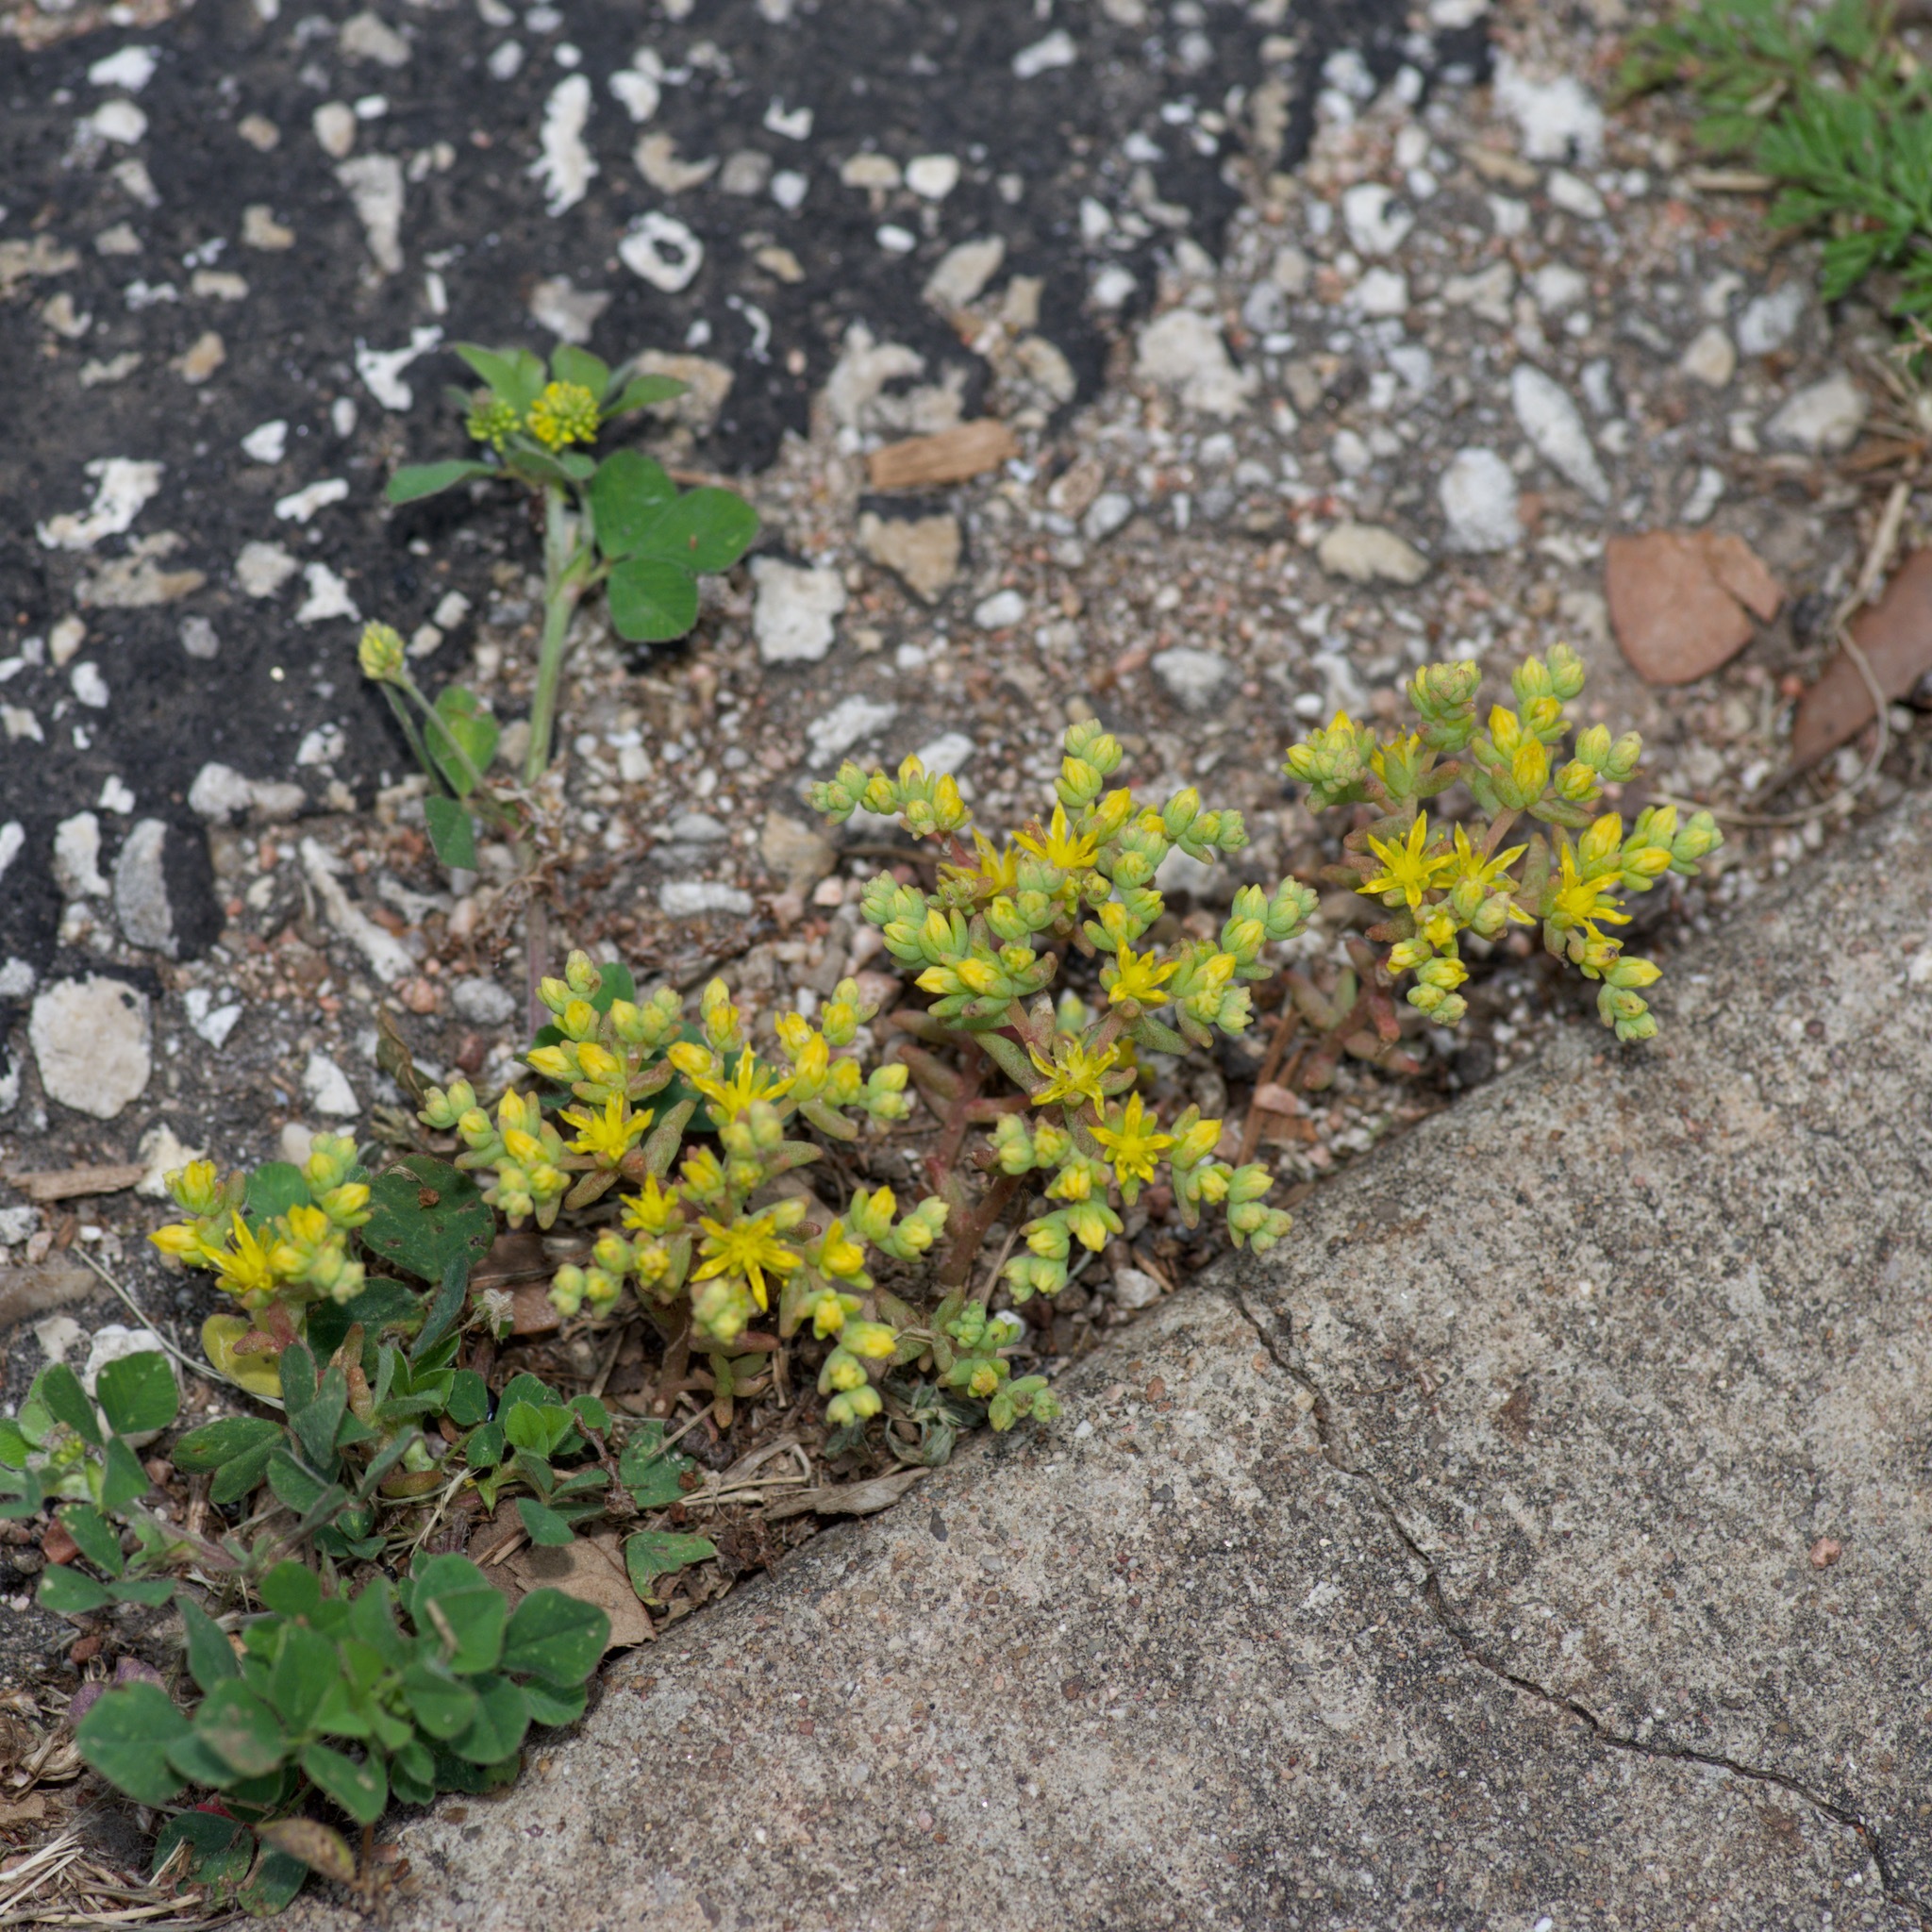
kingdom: Plantae
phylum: Tracheophyta
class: Magnoliopsida
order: Saxifragales
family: Crassulaceae
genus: Sedum
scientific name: Sedum nuttallii
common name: Yellow stonecrop
